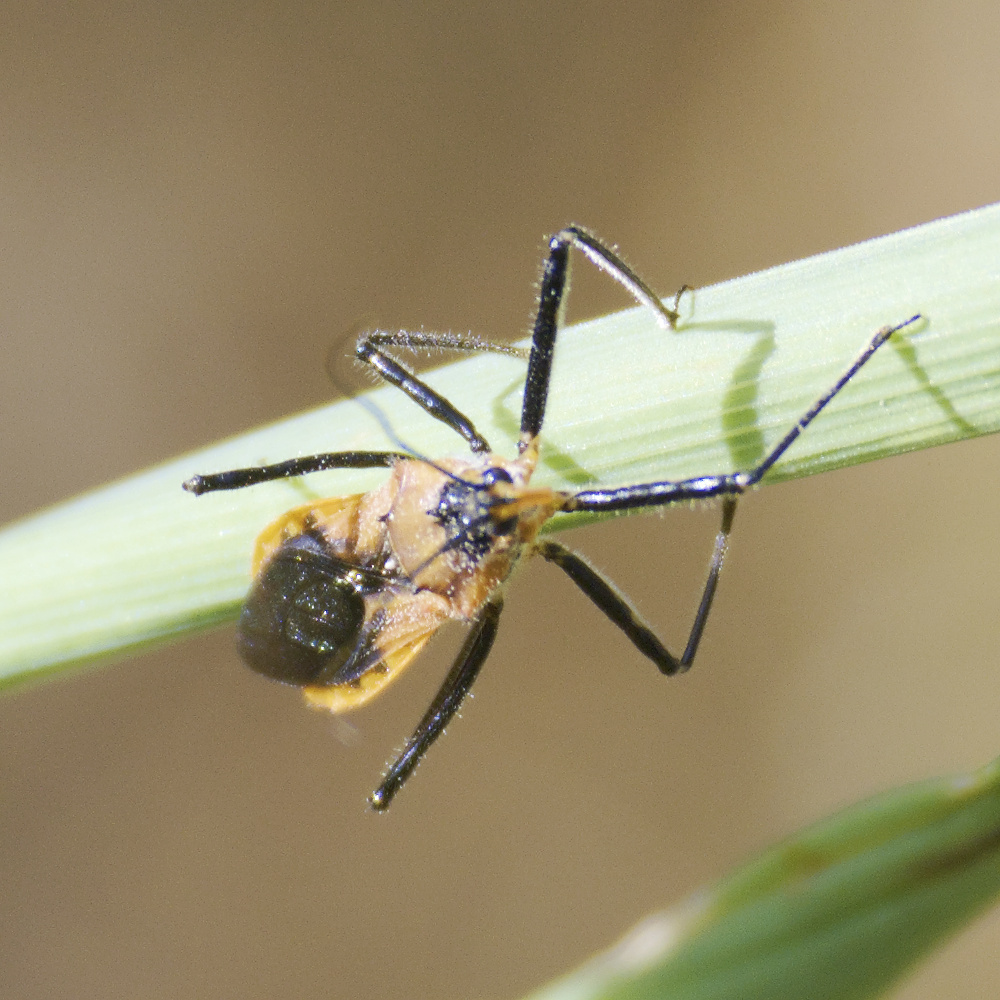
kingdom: Animalia
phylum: Arthropoda
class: Insecta
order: Hemiptera
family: Reduviidae
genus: Gminatus
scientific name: Gminatus australis
